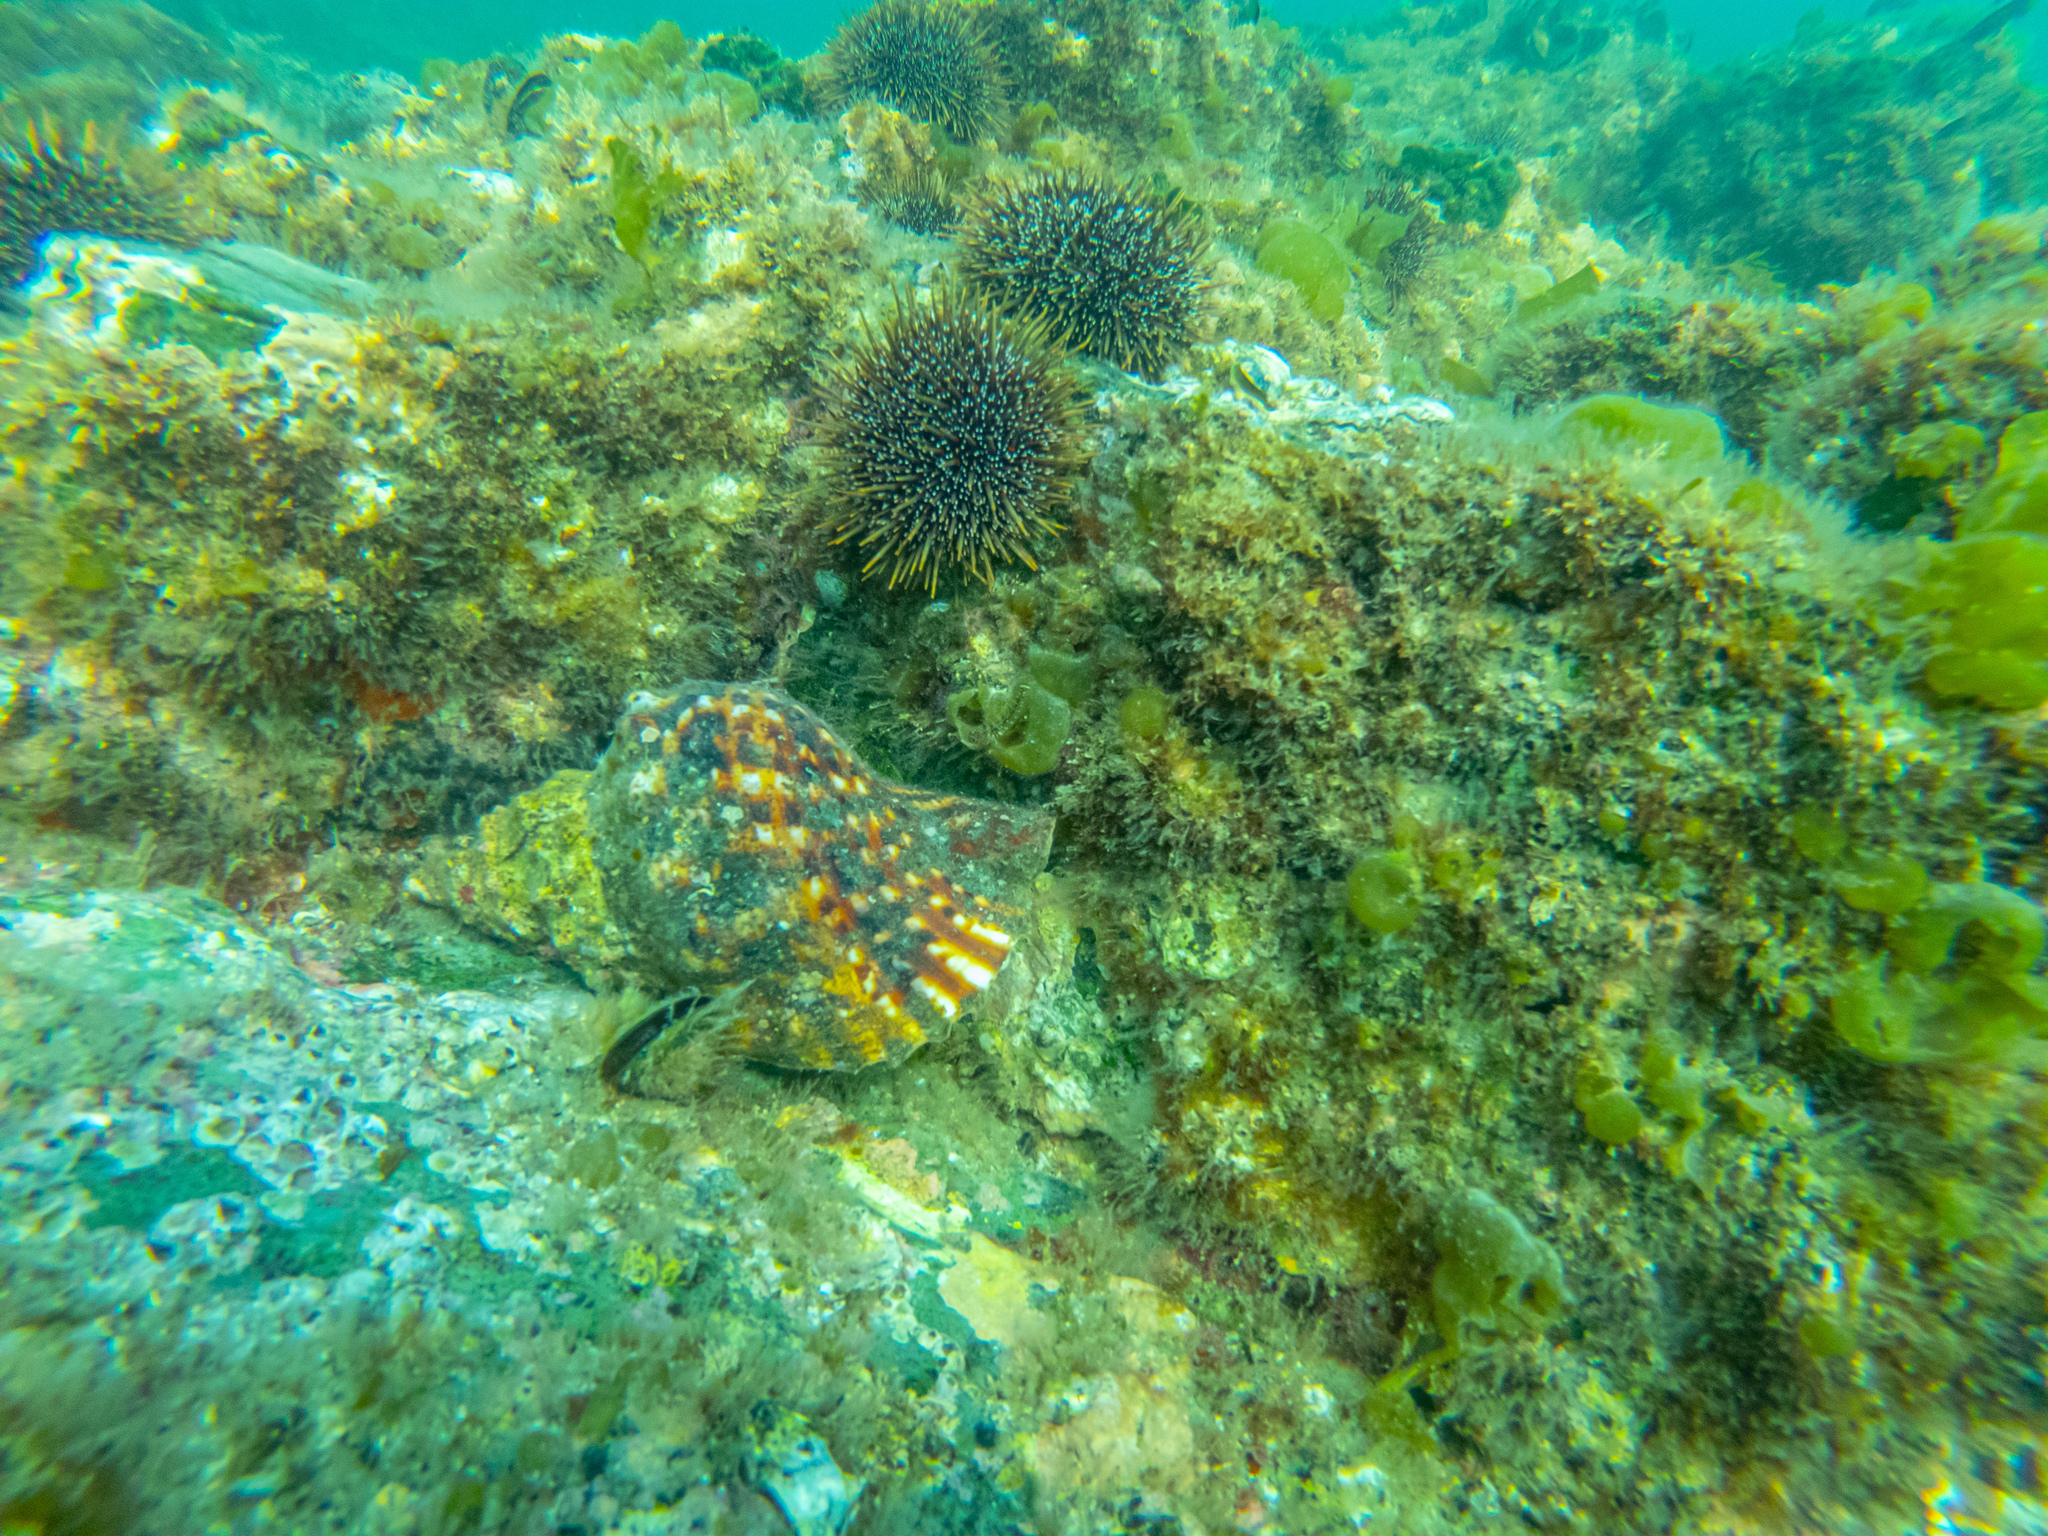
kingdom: Animalia
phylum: Mollusca
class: Gastropoda
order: Littorinimorpha
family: Charoniidae
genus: Charonia
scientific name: Charonia lampas
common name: Knobbed triton
